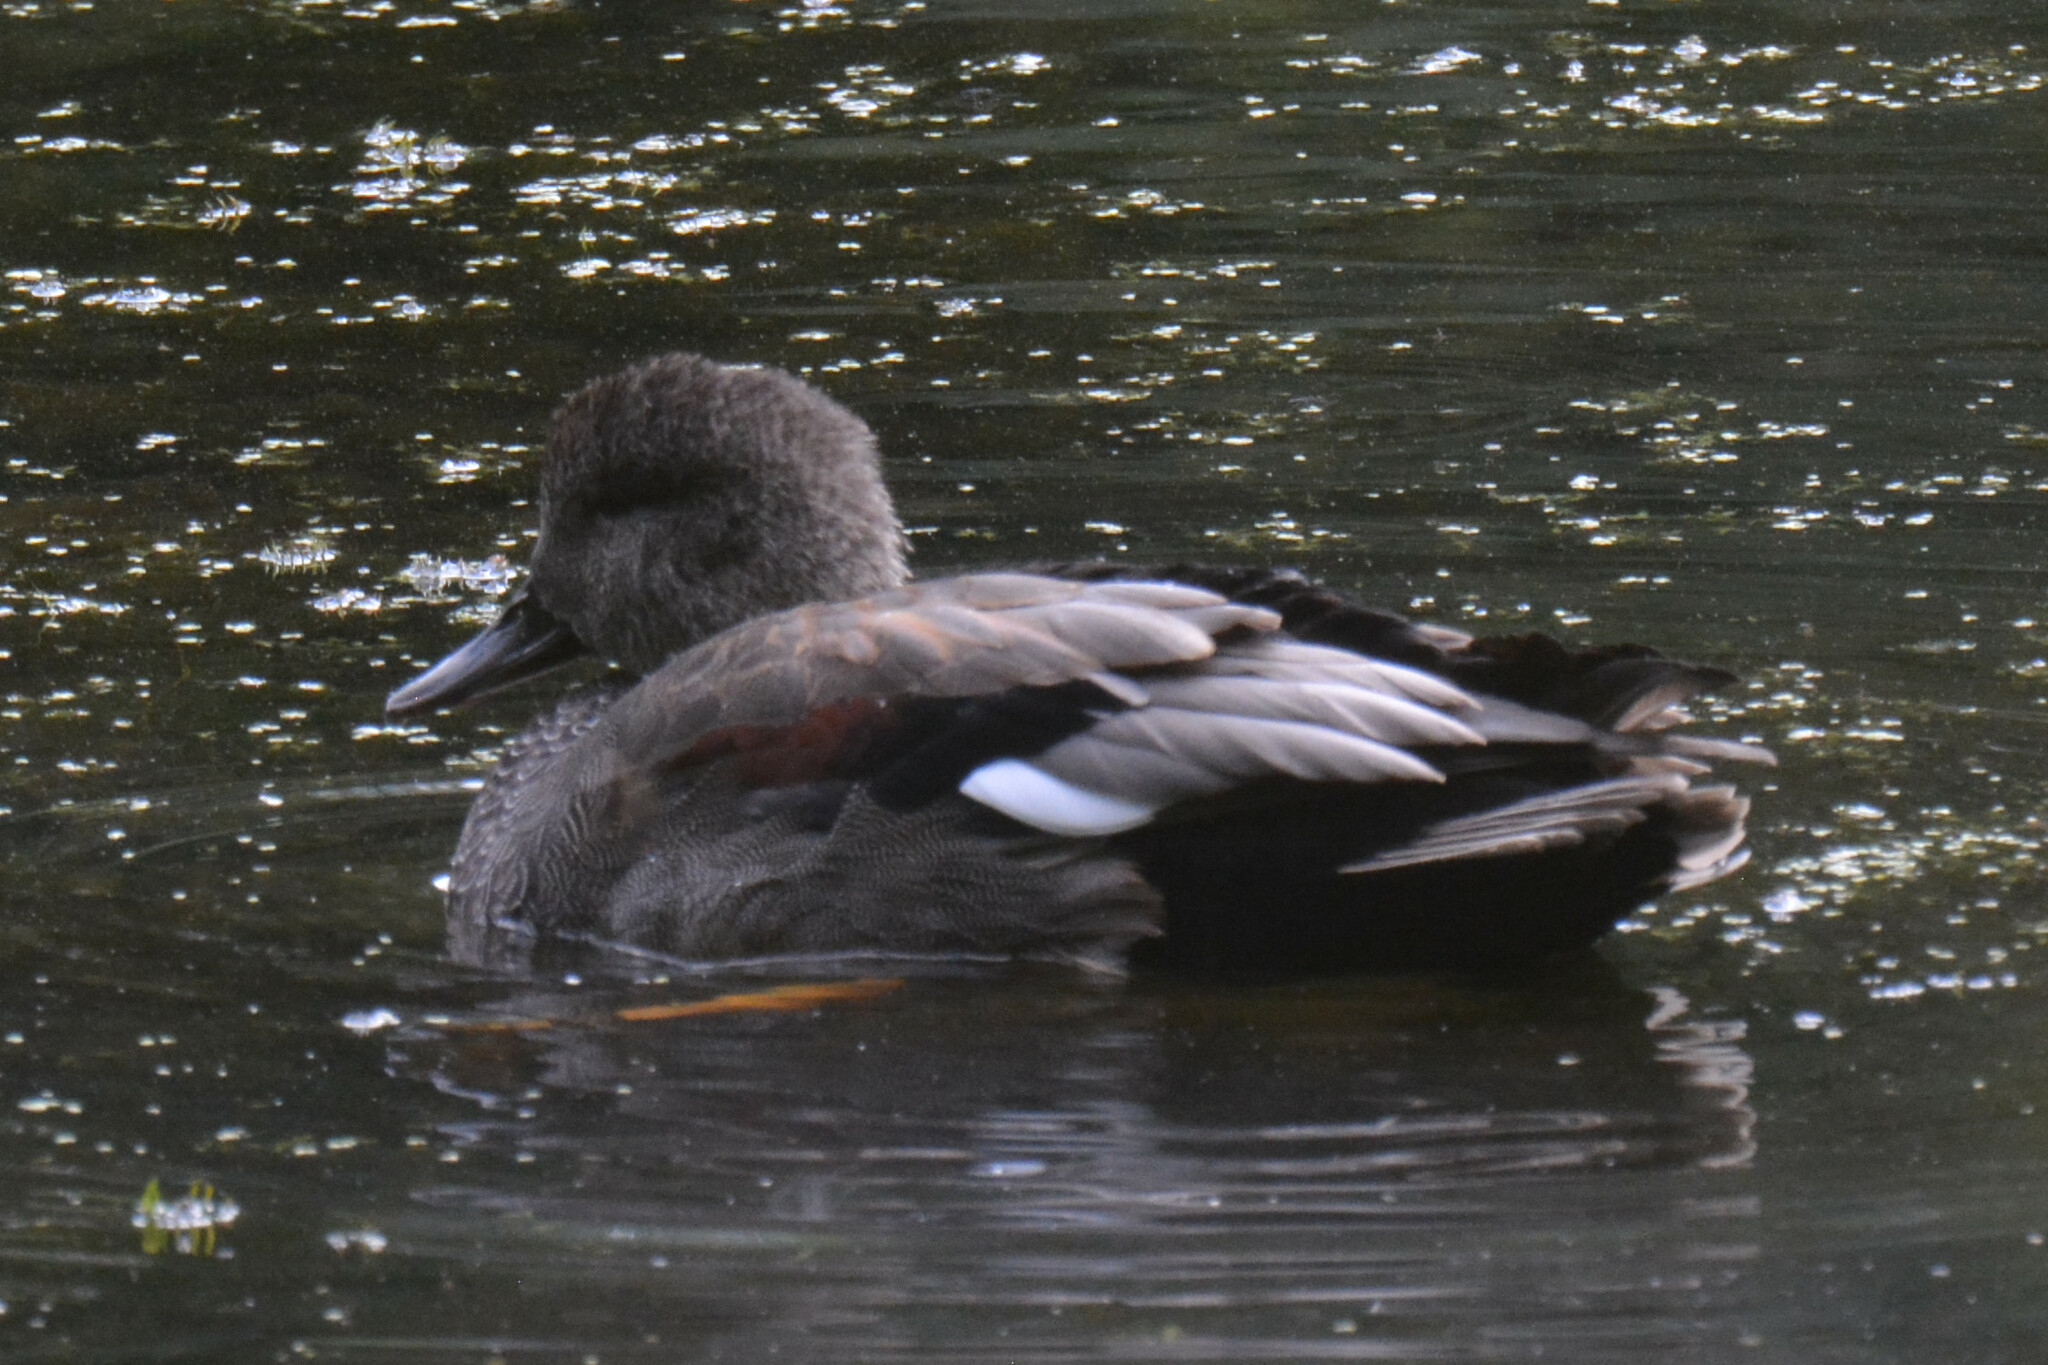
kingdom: Animalia
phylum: Chordata
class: Aves
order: Anseriformes
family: Anatidae
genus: Mareca
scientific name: Mareca strepera
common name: Gadwall
